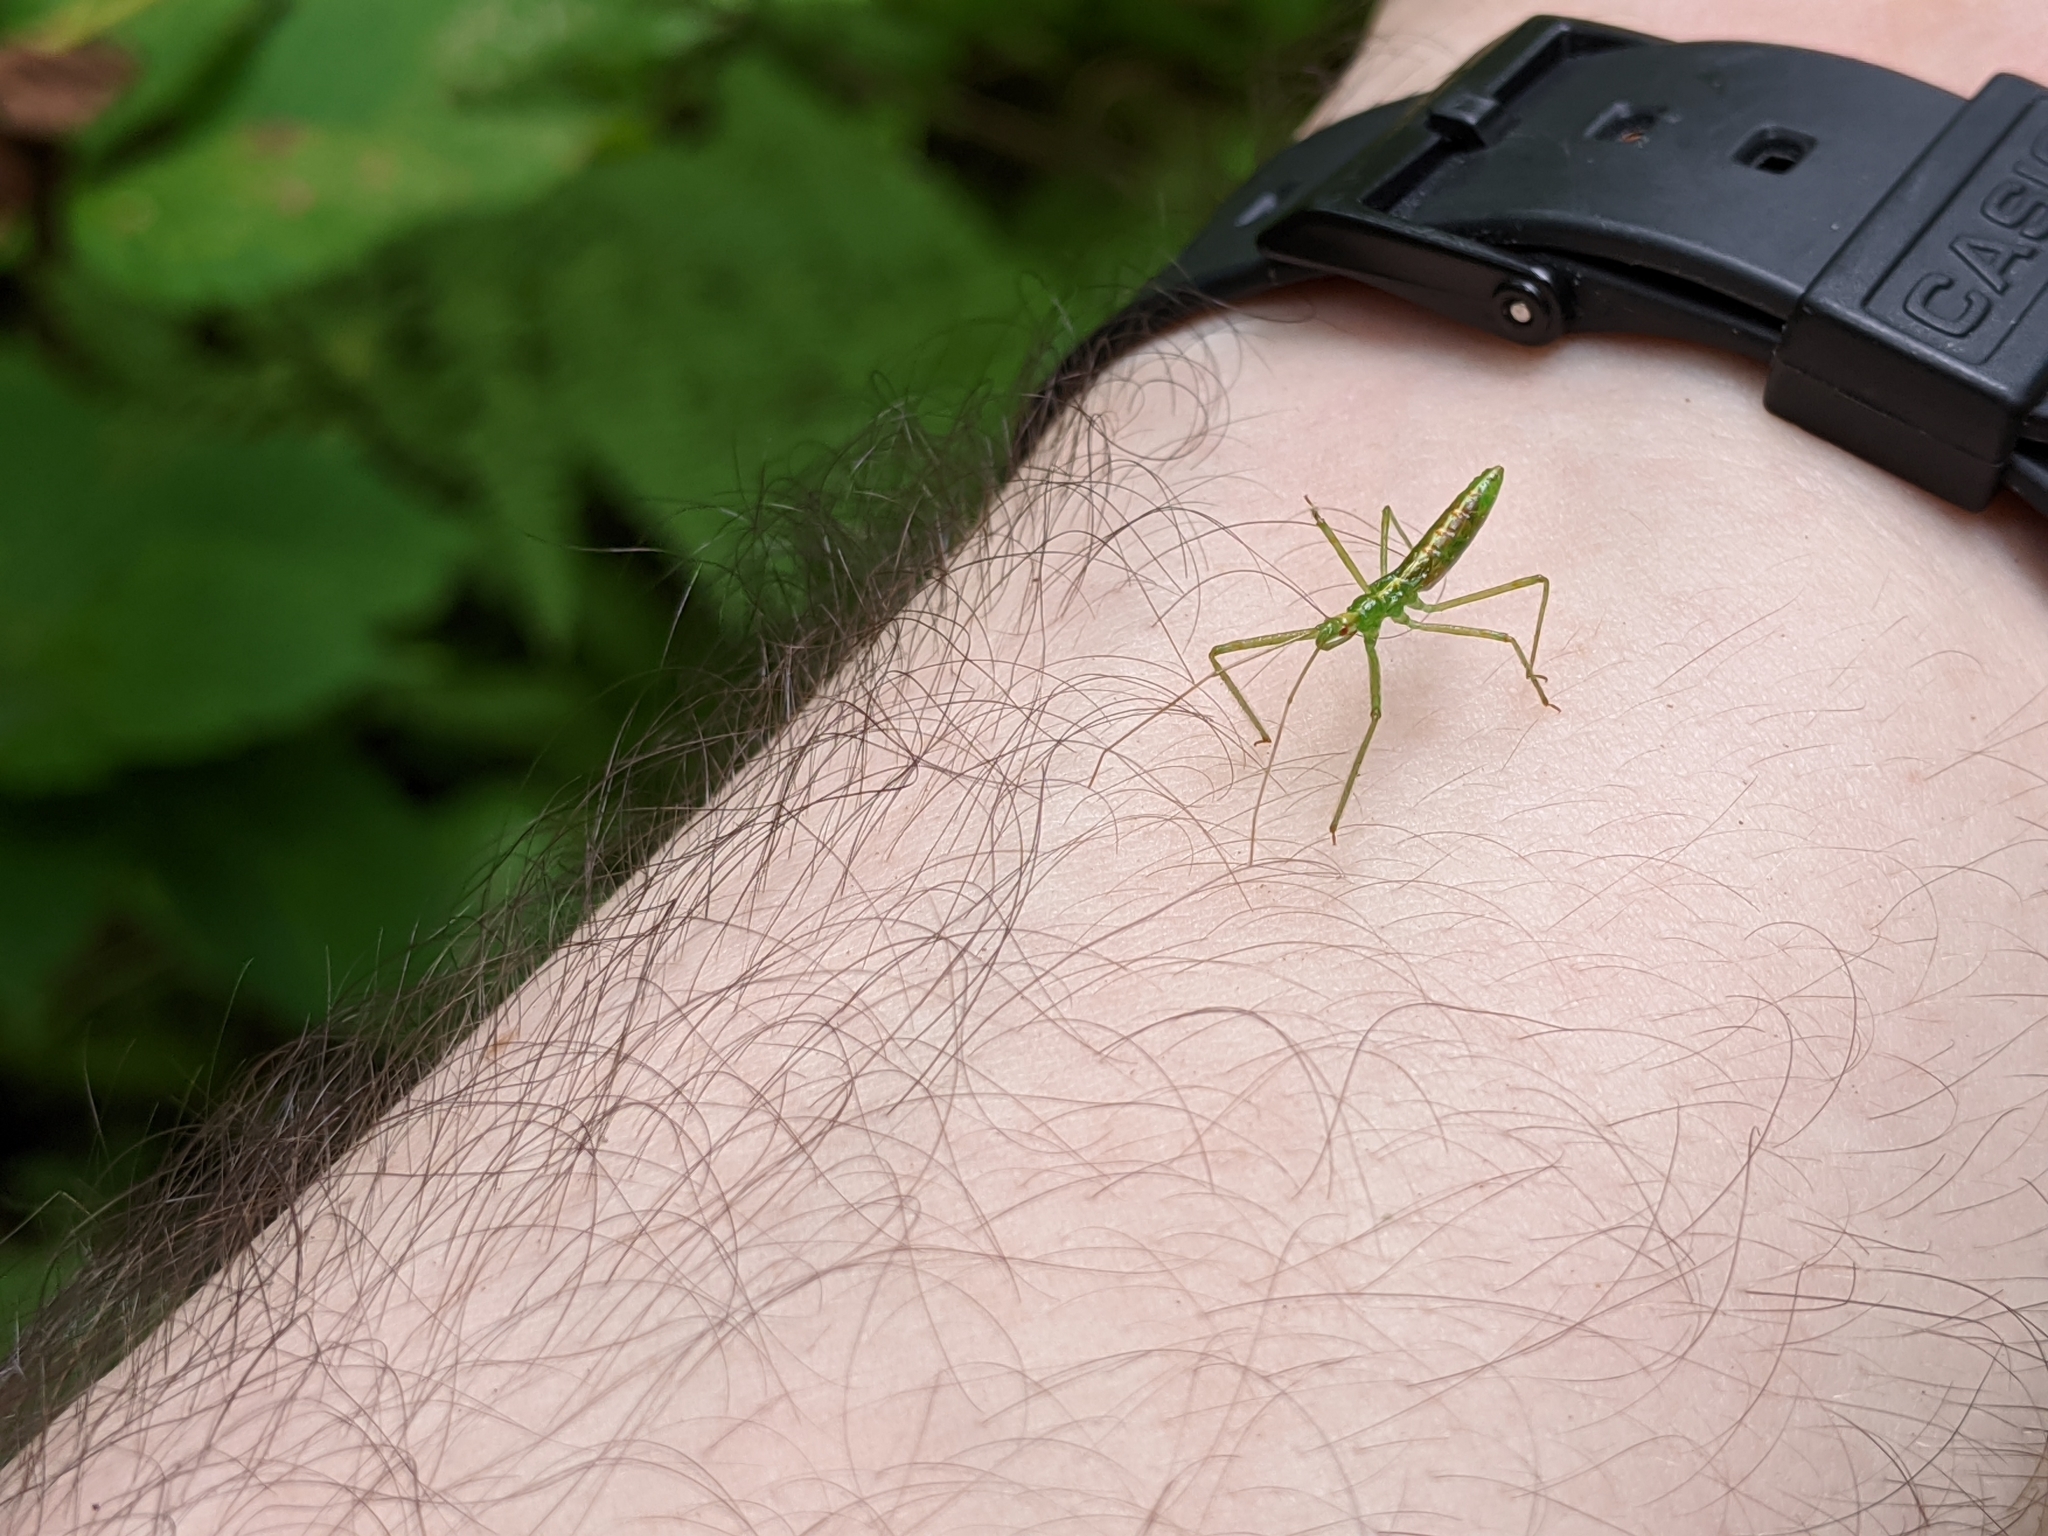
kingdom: Animalia
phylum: Arthropoda
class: Insecta
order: Hemiptera
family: Reduviidae
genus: Zelus
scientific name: Zelus luridus
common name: Pale green assassin bug
